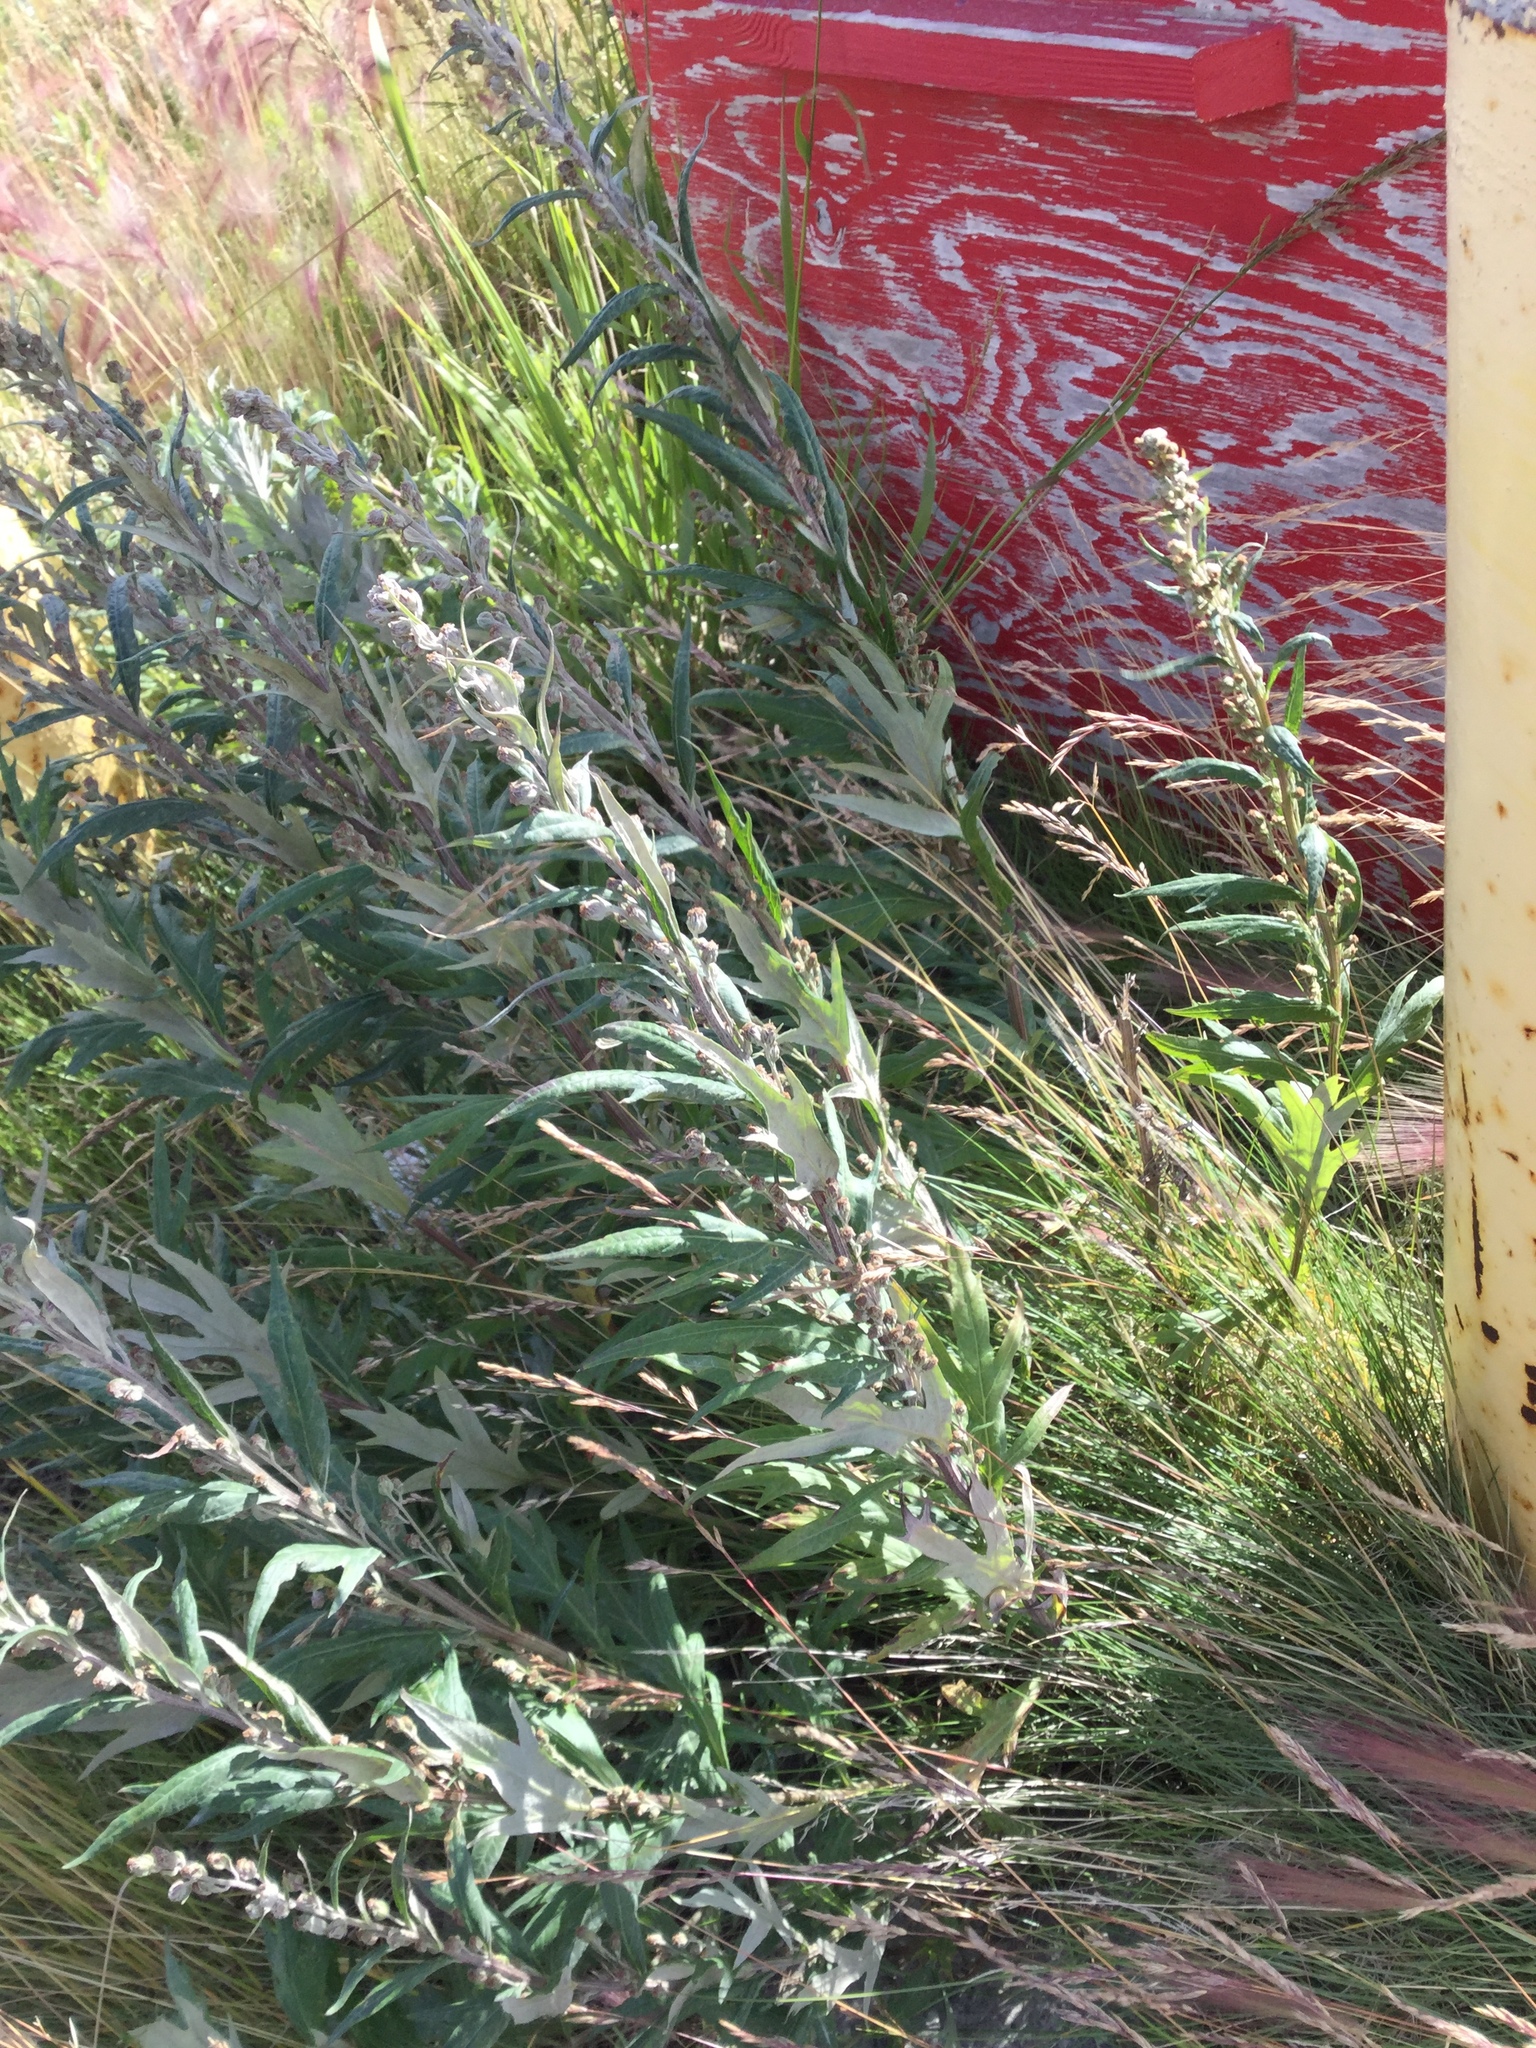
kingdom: Plantae
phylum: Tracheophyta
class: Magnoliopsida
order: Asterales
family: Asteraceae
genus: Artemisia
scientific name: Artemisia tilesii
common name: Aleutian mugwort
